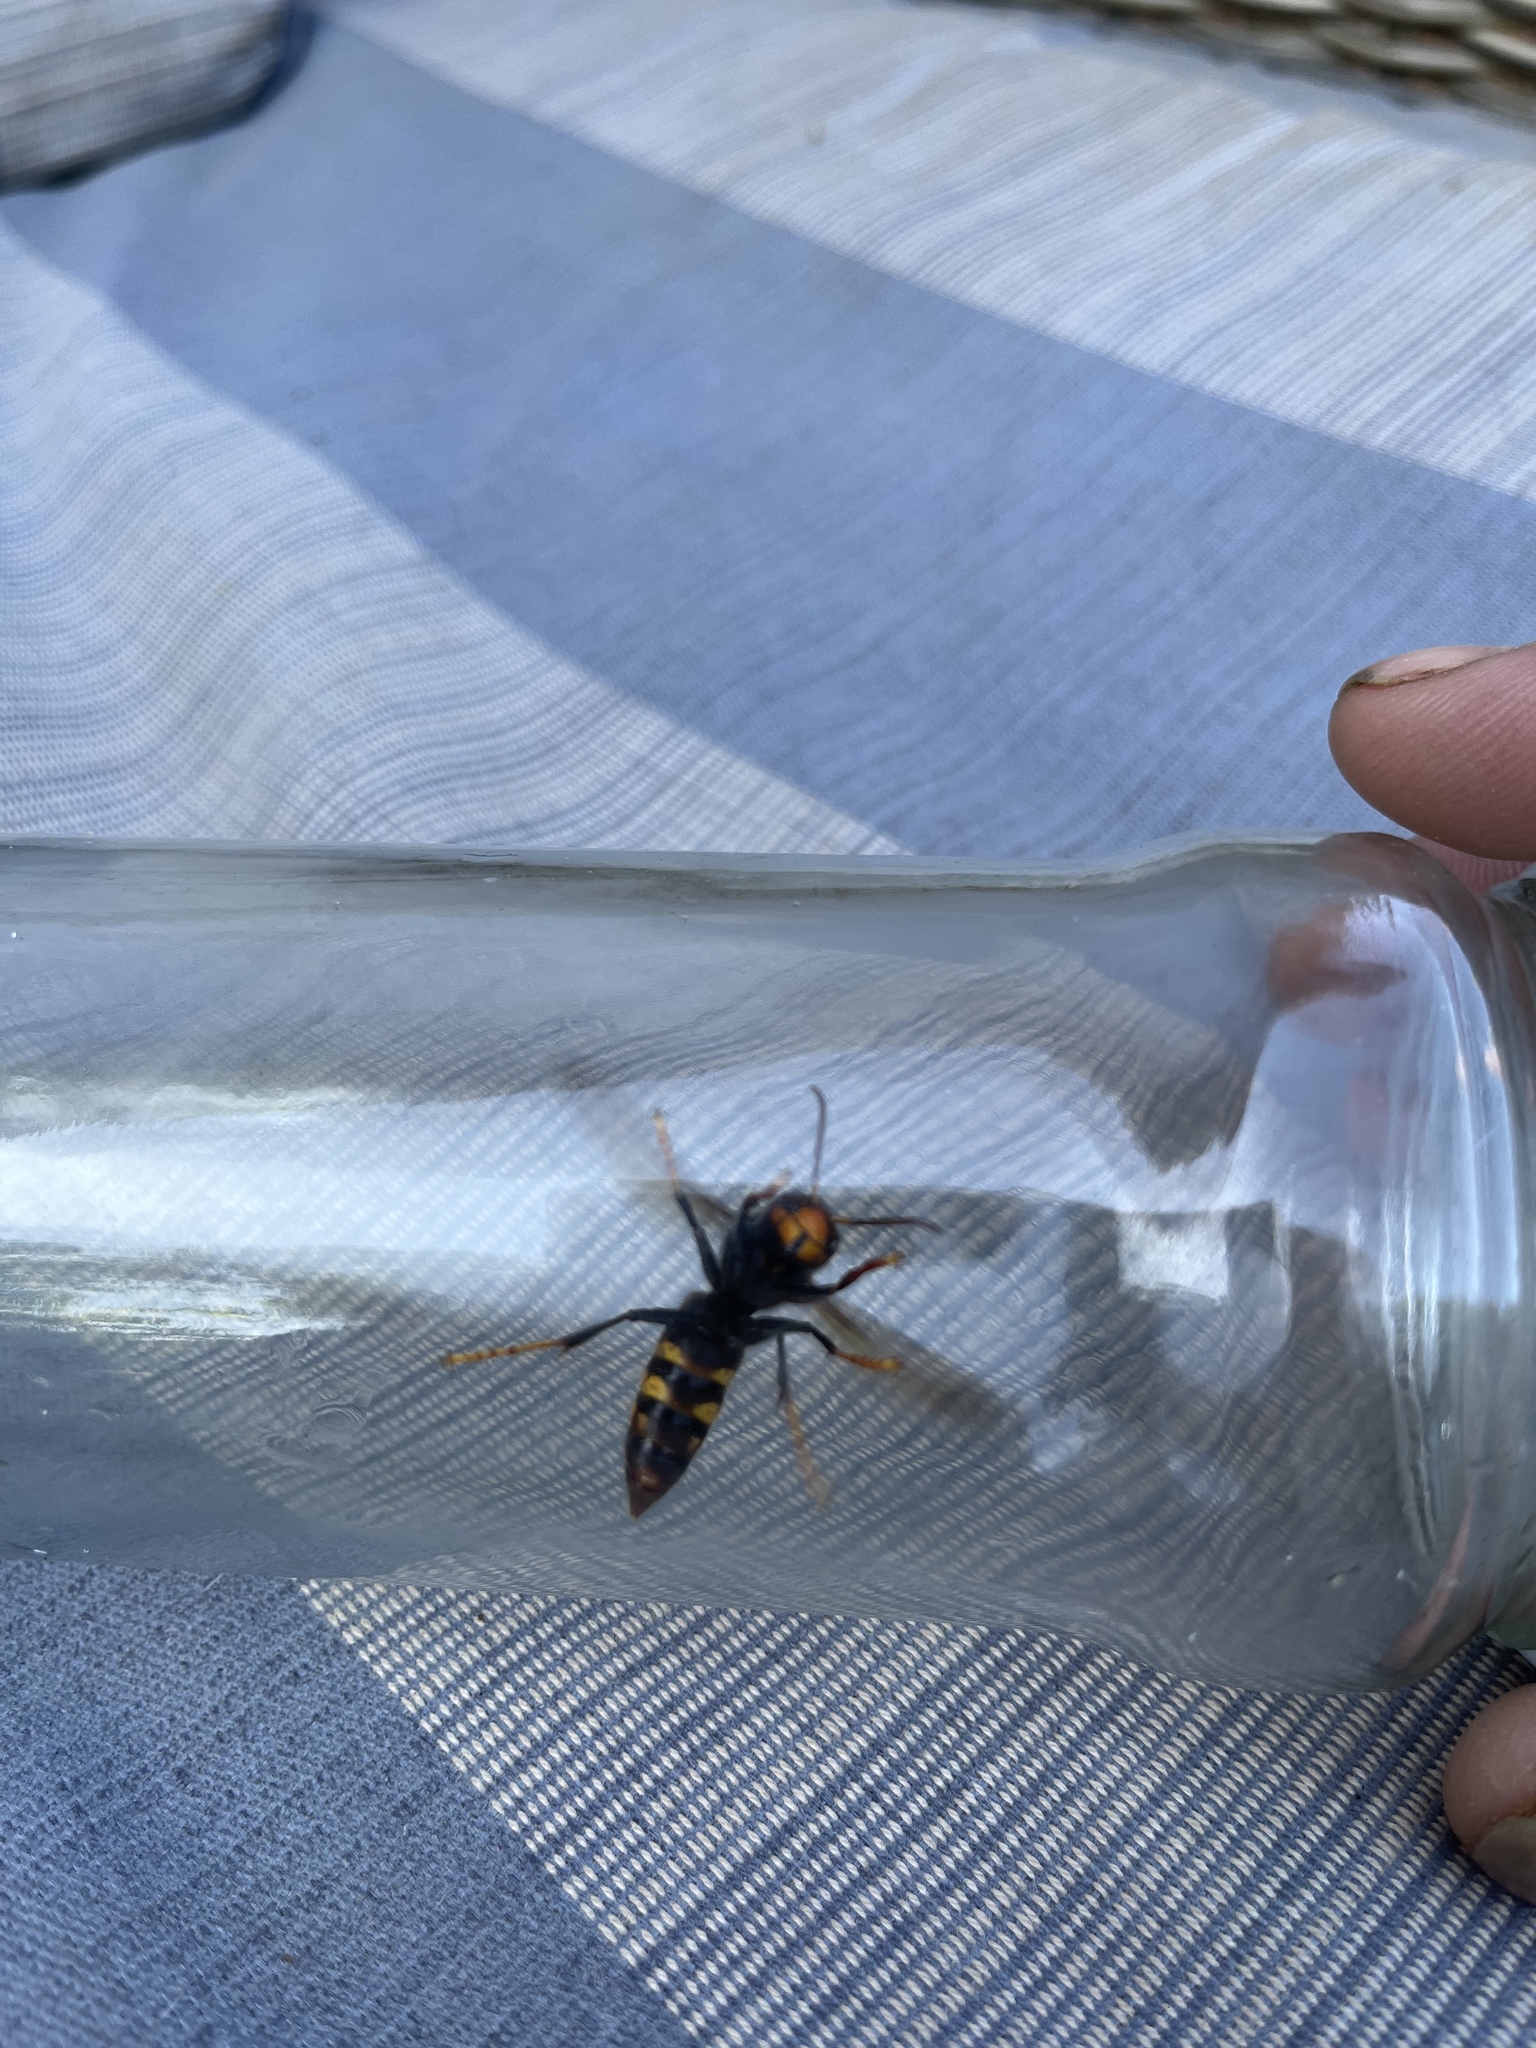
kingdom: Animalia
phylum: Arthropoda
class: Insecta
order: Hymenoptera
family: Vespidae
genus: Vespa
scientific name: Vespa velutina
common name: Asian hornet
